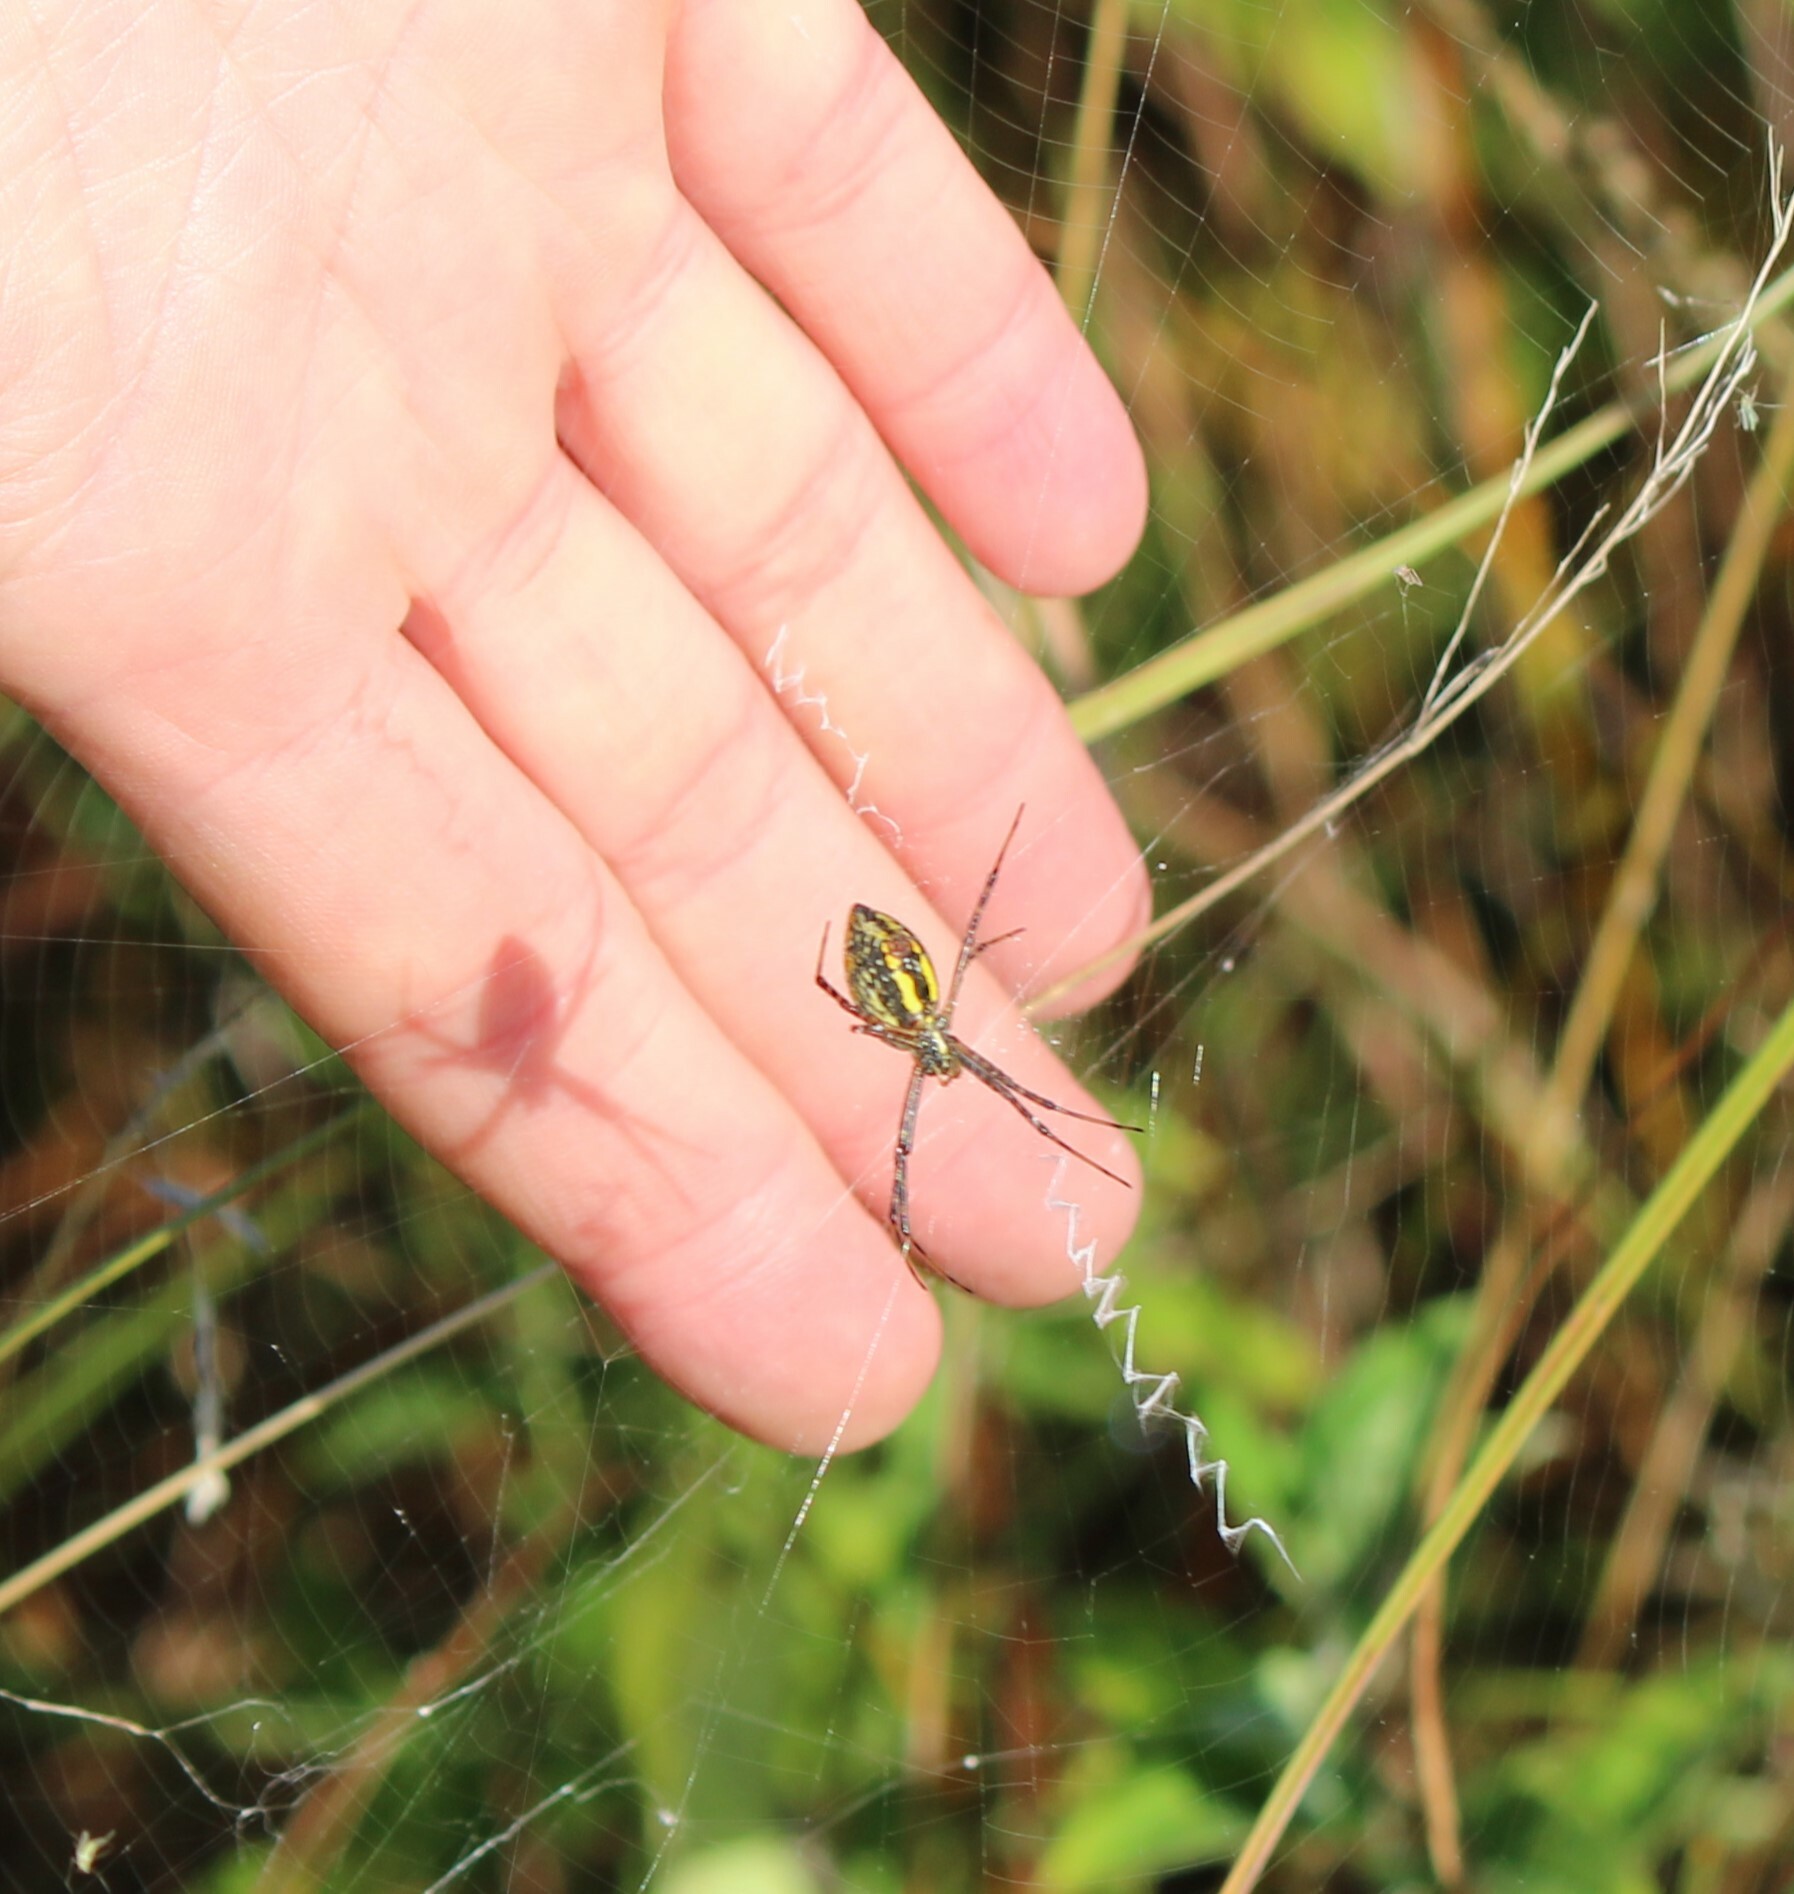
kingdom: Animalia
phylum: Arthropoda
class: Arachnida
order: Araneae
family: Araneidae
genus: Argiope
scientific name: Argiope trifasciata
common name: Banded garden spider
